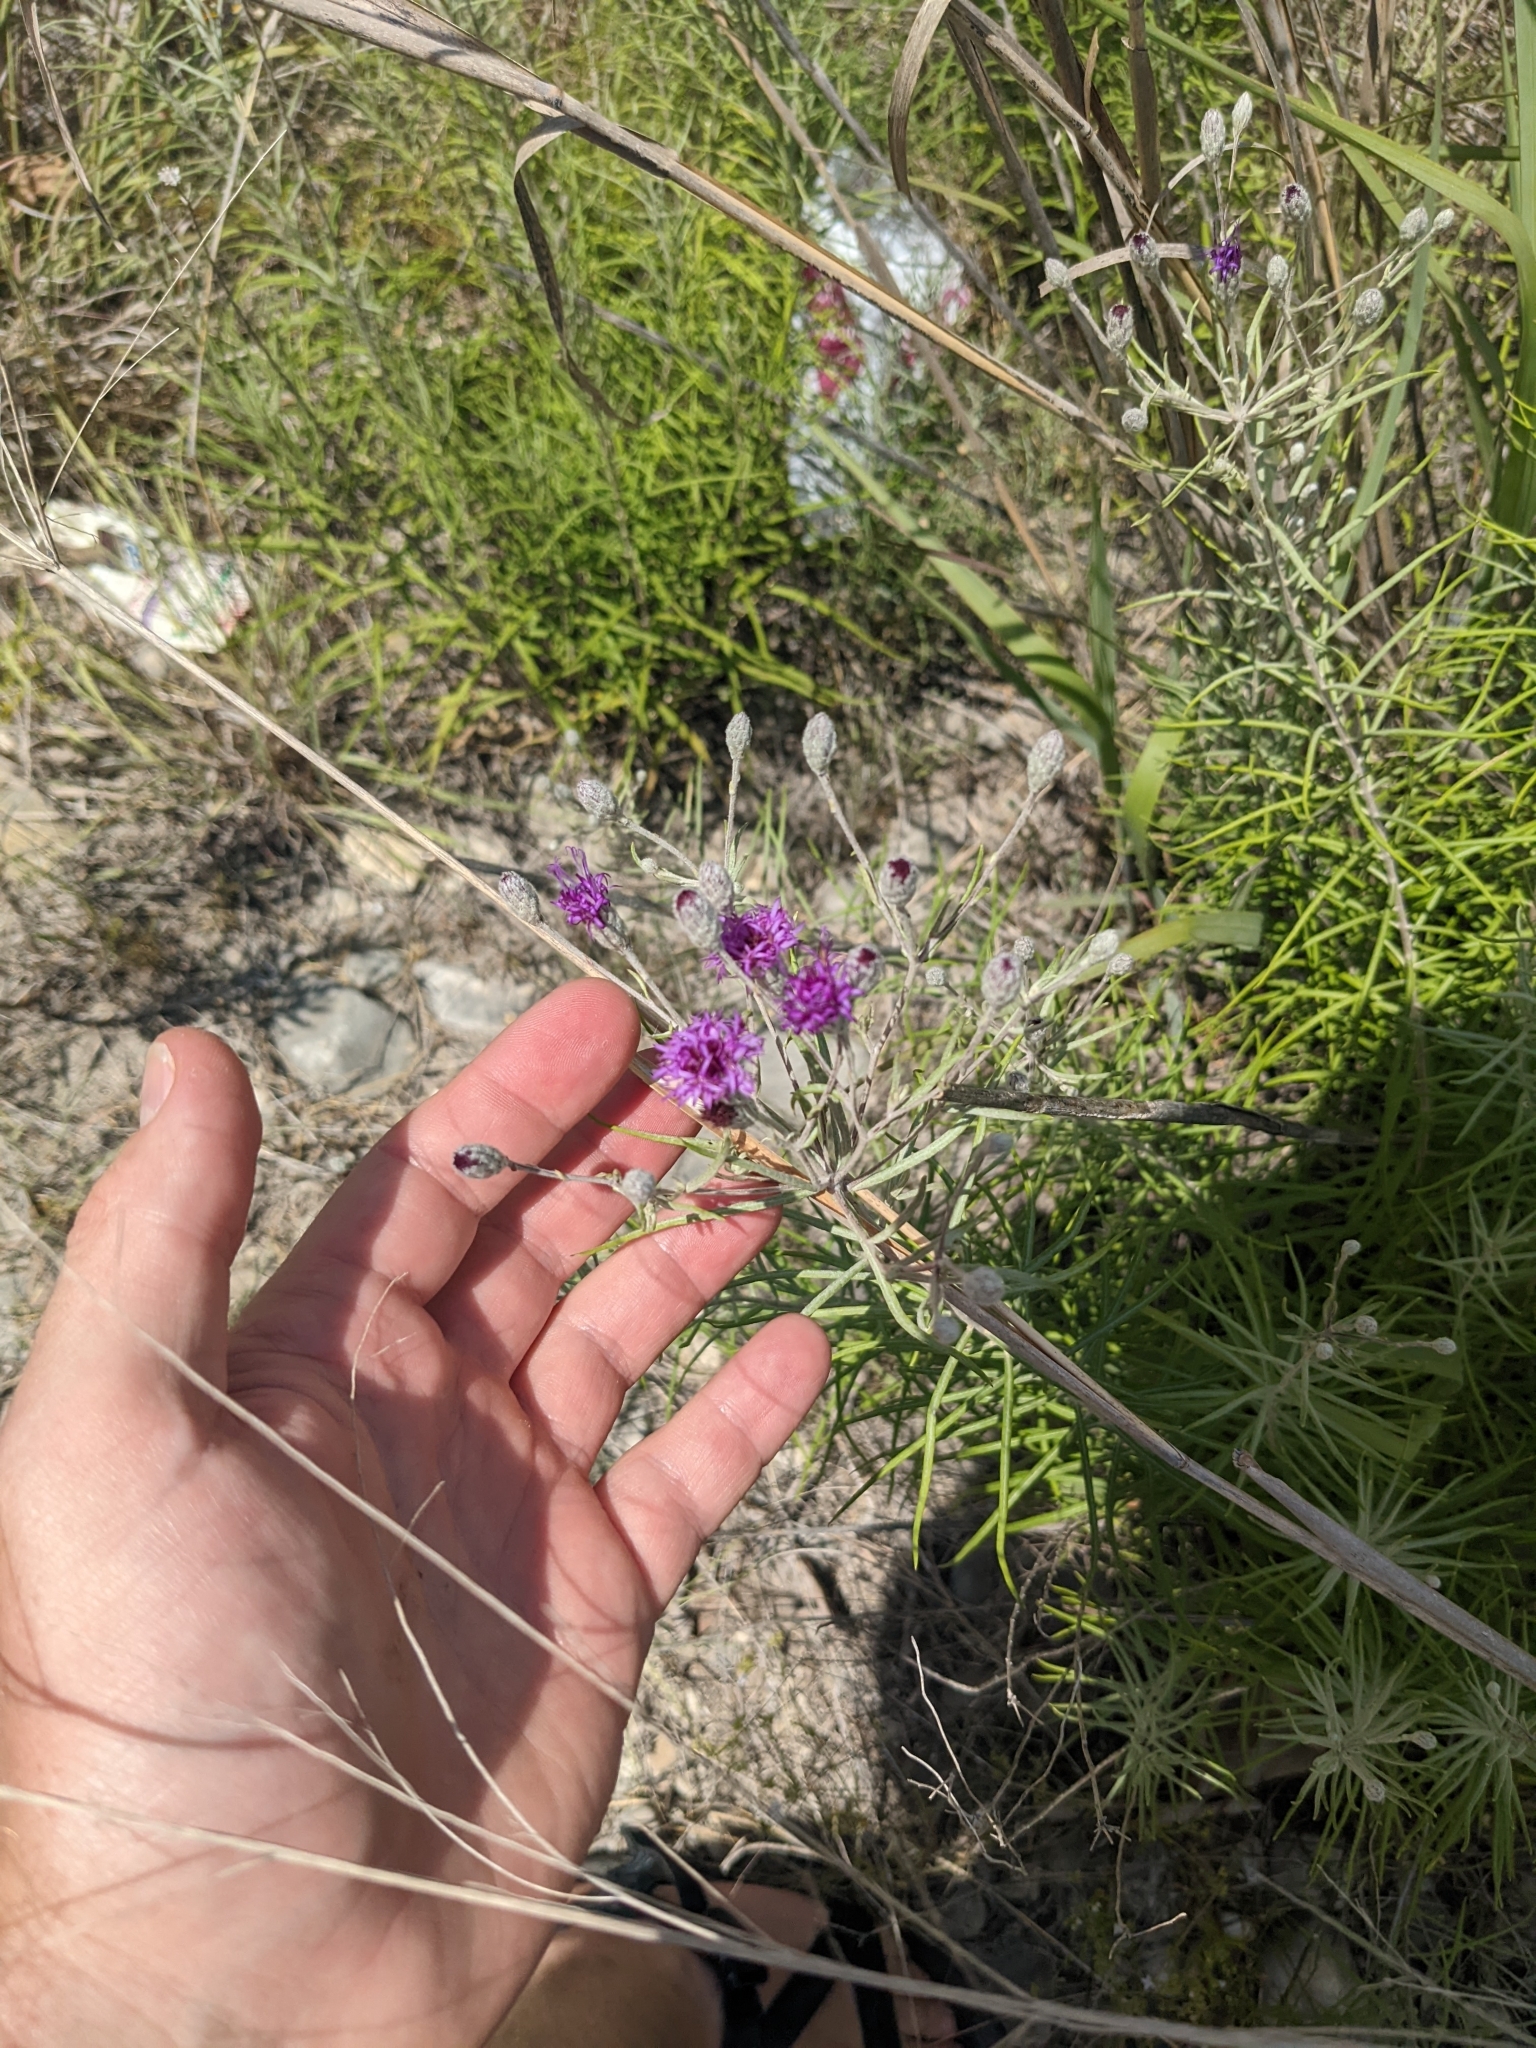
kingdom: Plantae
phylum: Tracheophyta
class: Magnoliopsida
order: Asterales
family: Asteraceae
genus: Vernonia
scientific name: Vernonia lindheimeri
